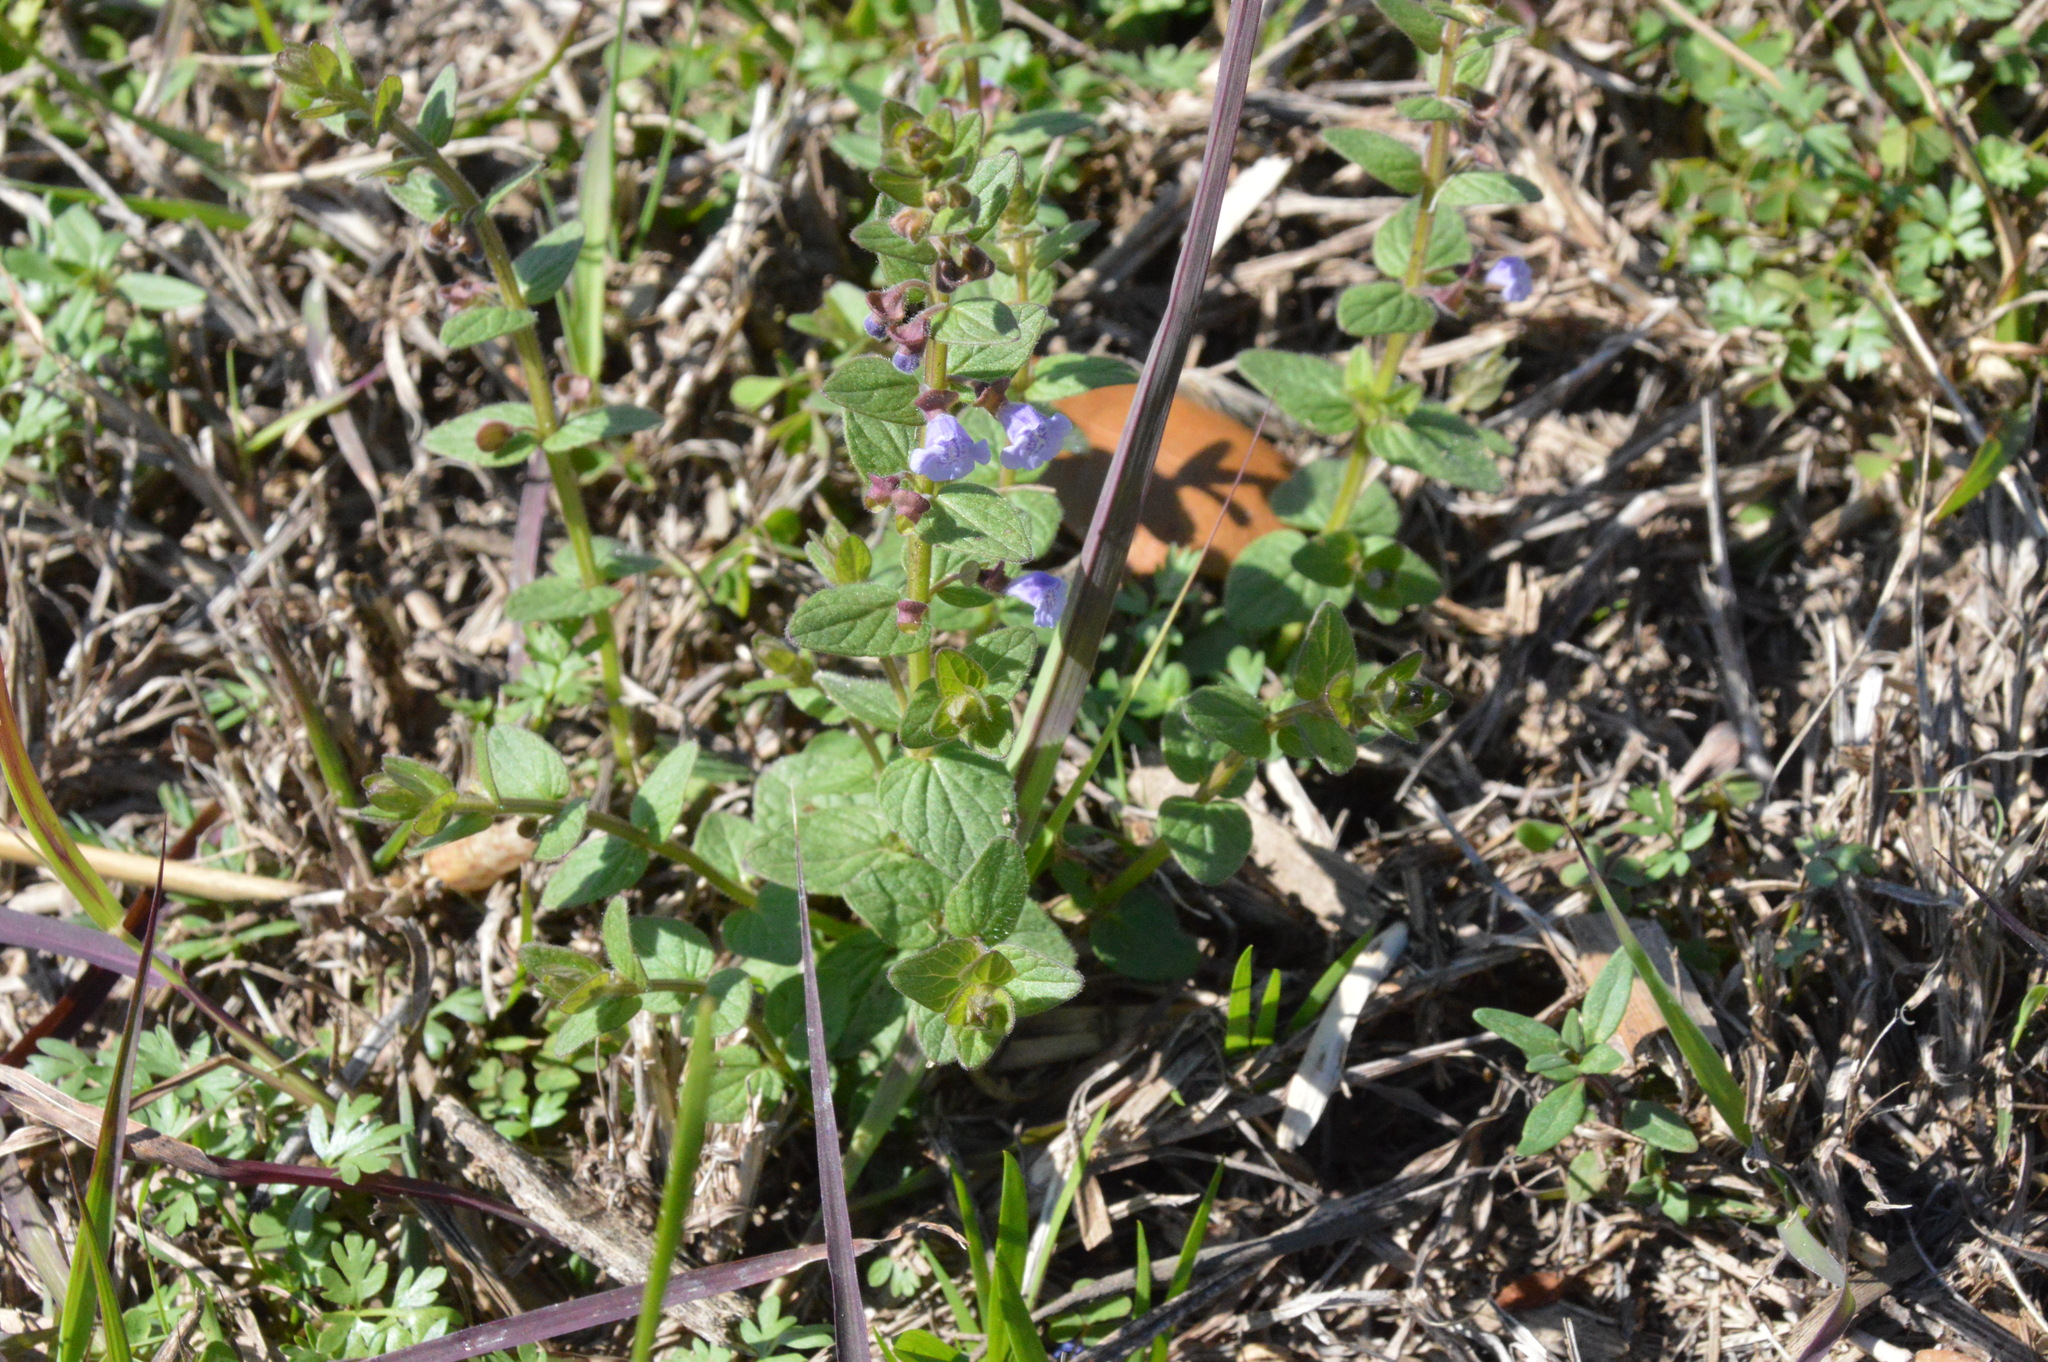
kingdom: Plantae
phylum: Tracheophyta
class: Magnoliopsida
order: Lamiales
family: Lamiaceae
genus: Scutellaria
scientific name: Scutellaria parvula
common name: Little scullcap
